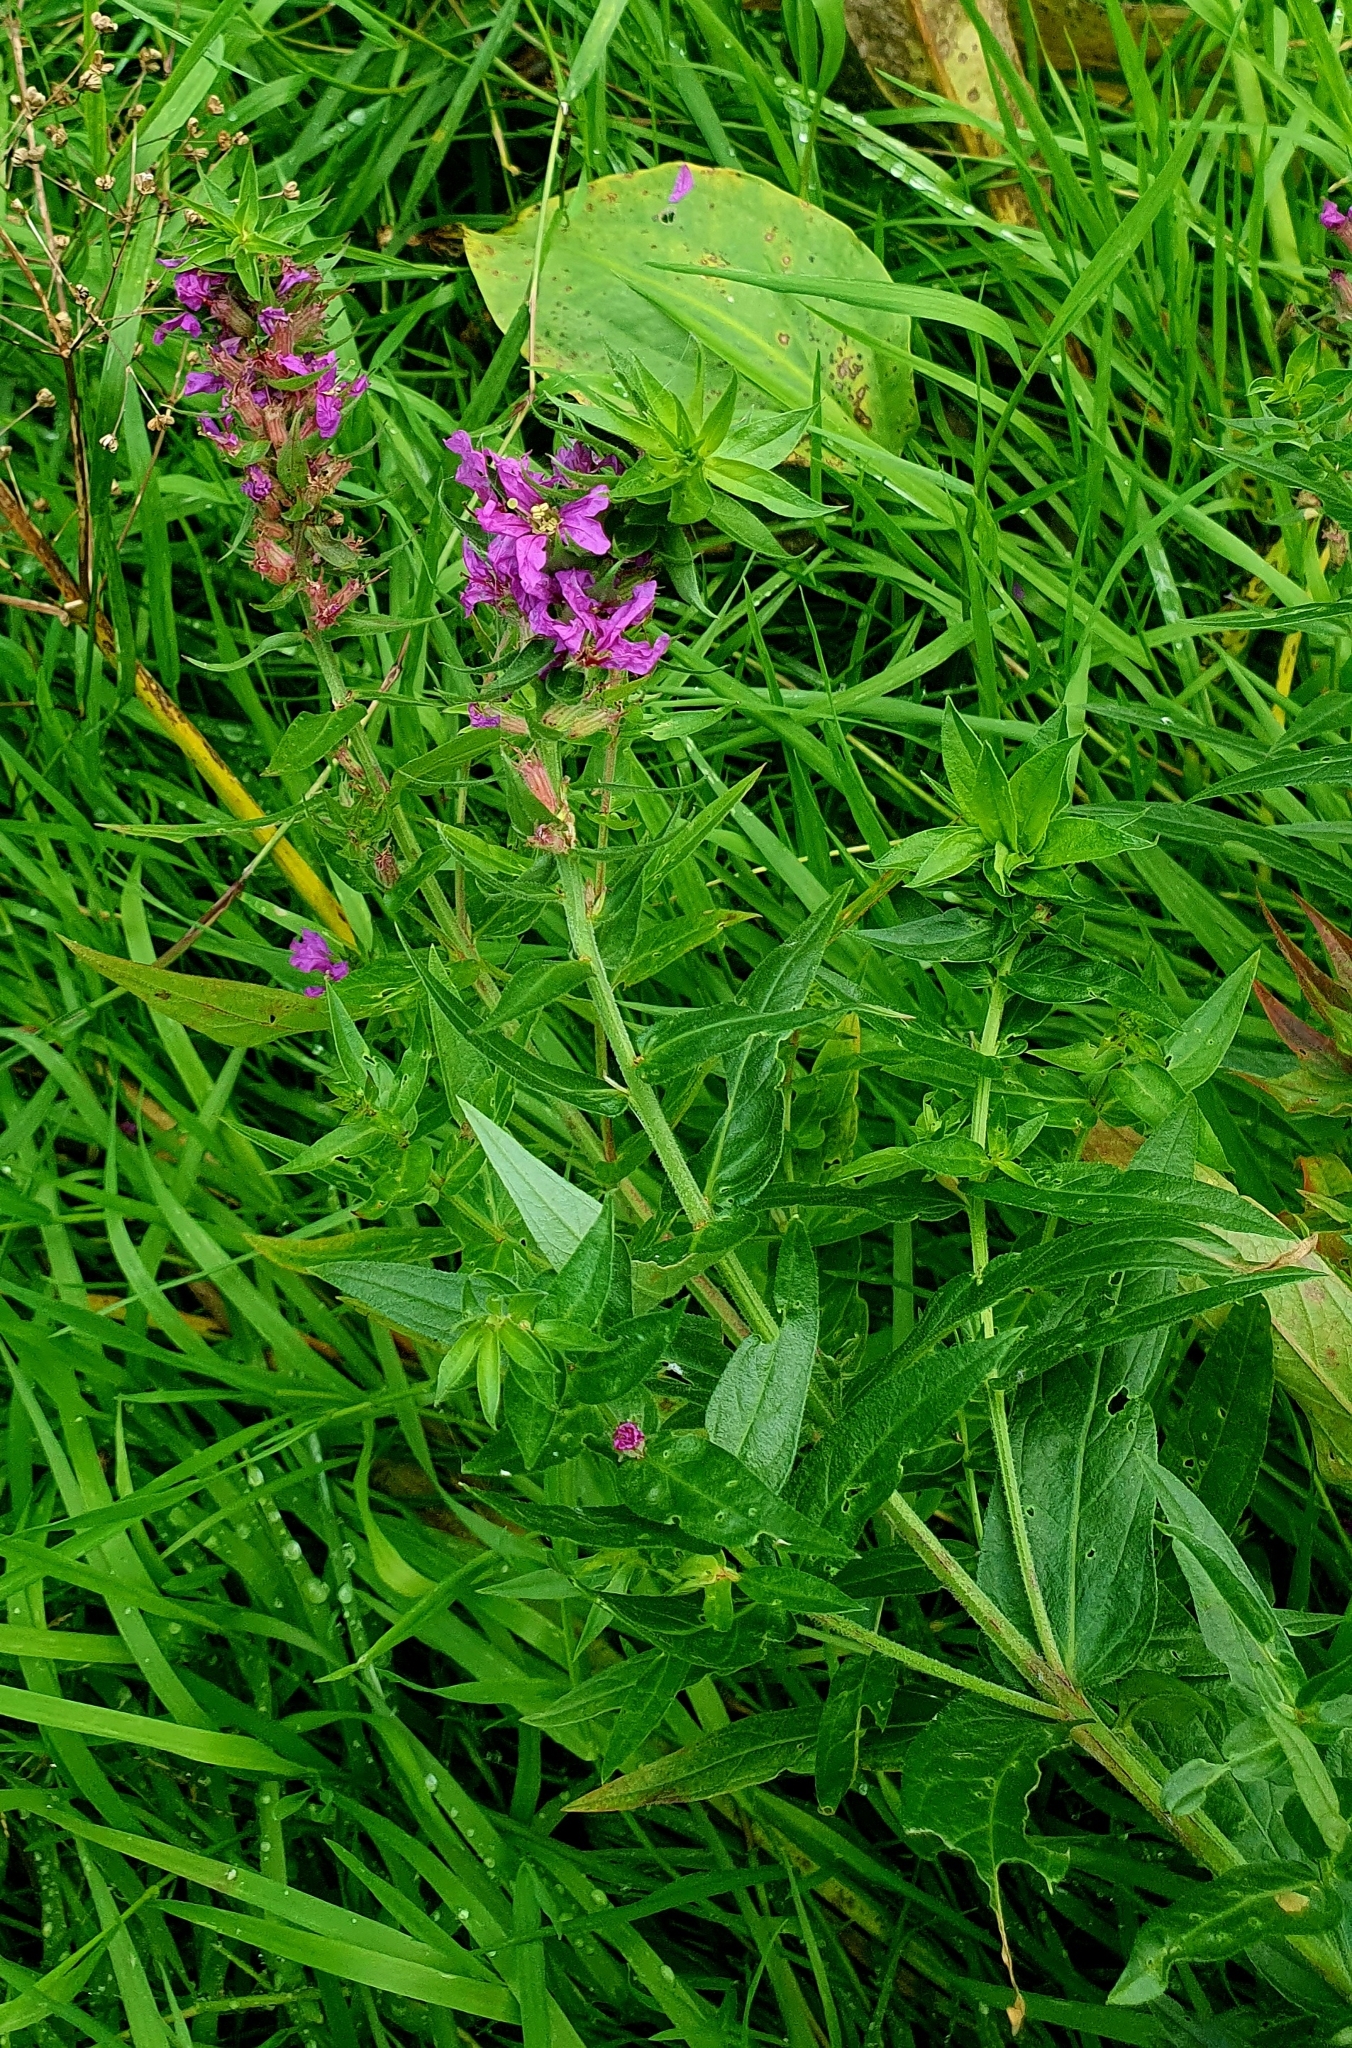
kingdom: Plantae
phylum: Tracheophyta
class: Magnoliopsida
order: Myrtales
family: Lythraceae
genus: Lythrum
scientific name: Lythrum salicaria
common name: Purple loosestrife
